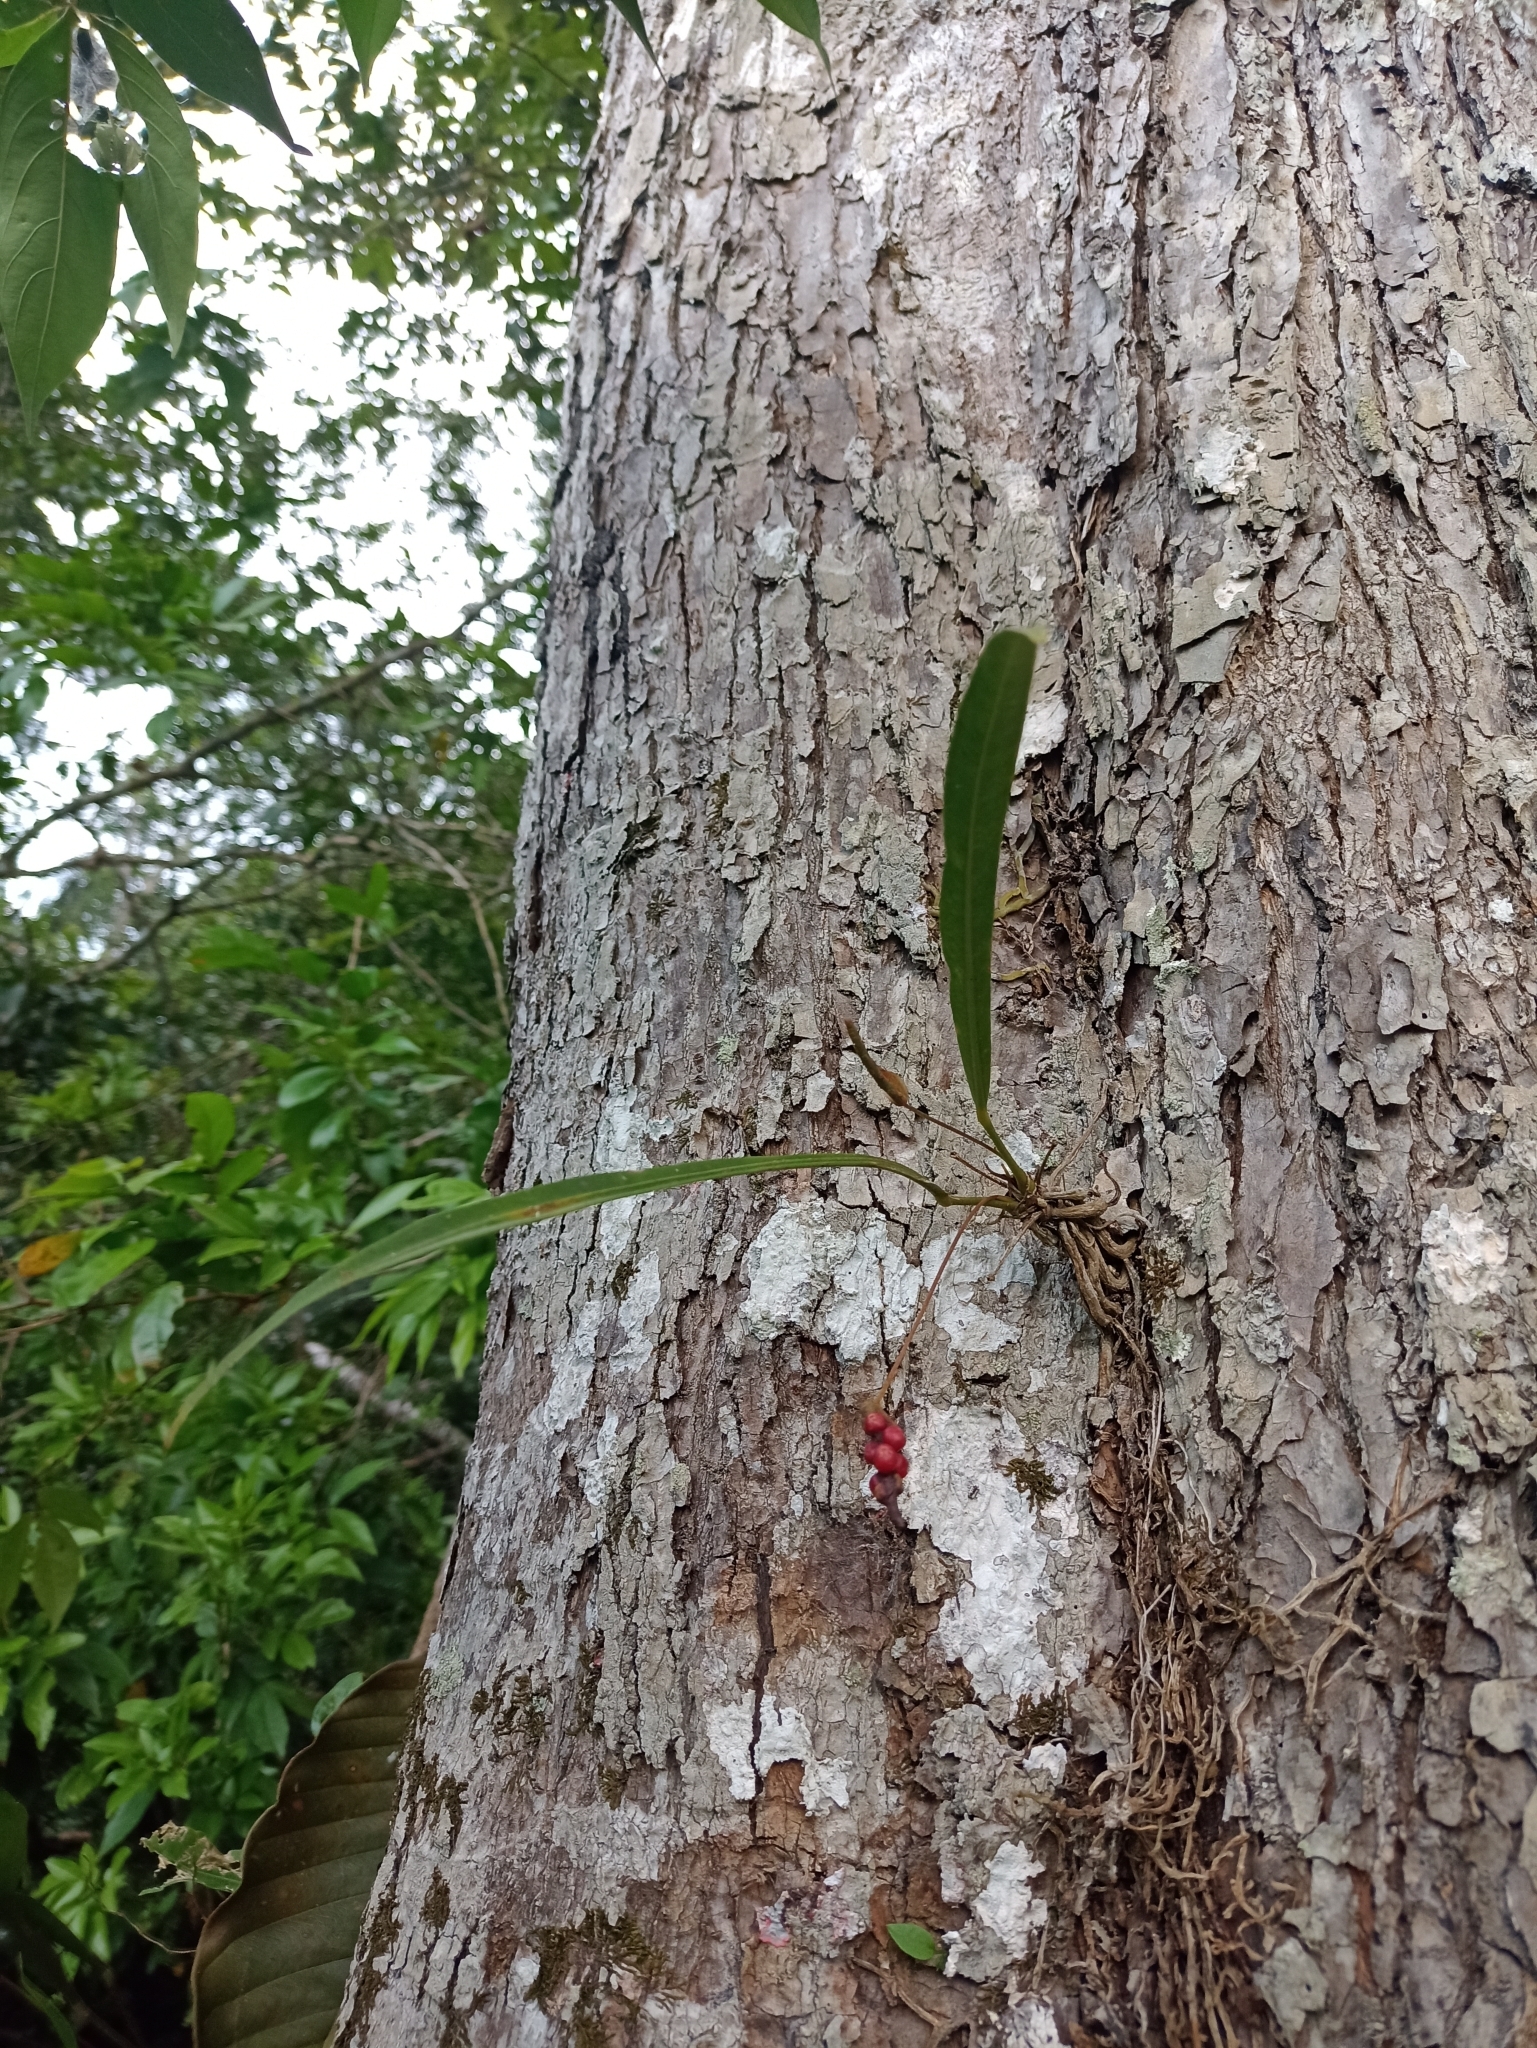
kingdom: Plantae
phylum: Tracheophyta
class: Liliopsida
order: Alismatales
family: Araceae
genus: Anthurium
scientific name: Anthurium gracile
